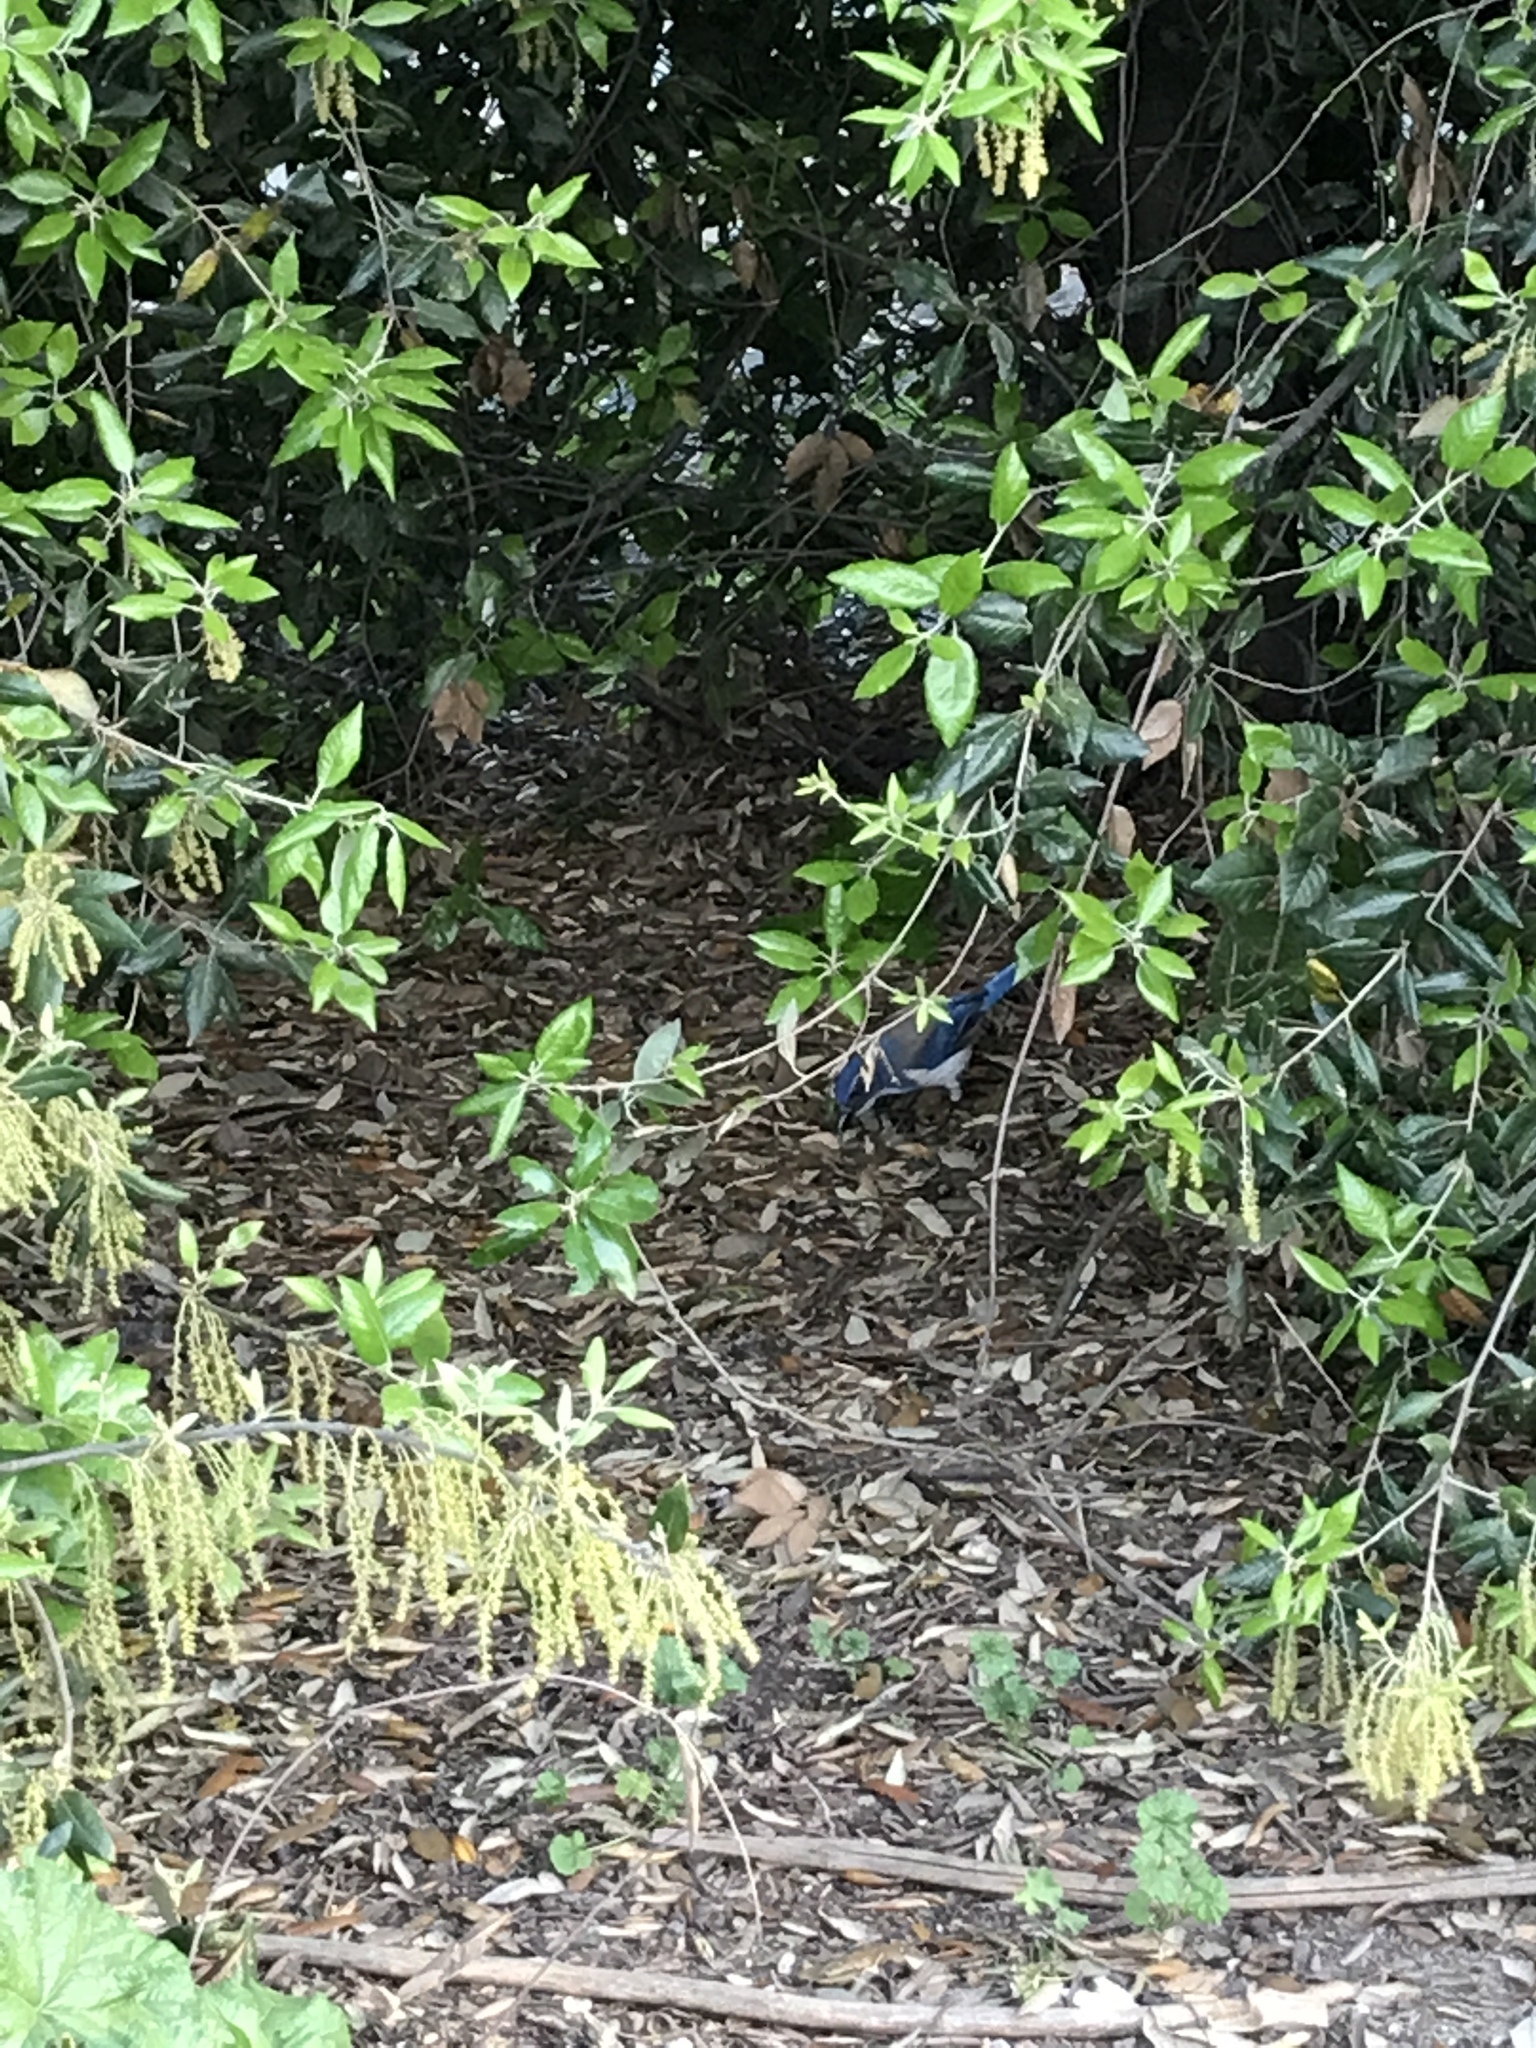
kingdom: Animalia
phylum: Chordata
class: Aves
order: Passeriformes
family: Corvidae
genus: Aphelocoma
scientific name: Aphelocoma californica
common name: California scrub-jay
